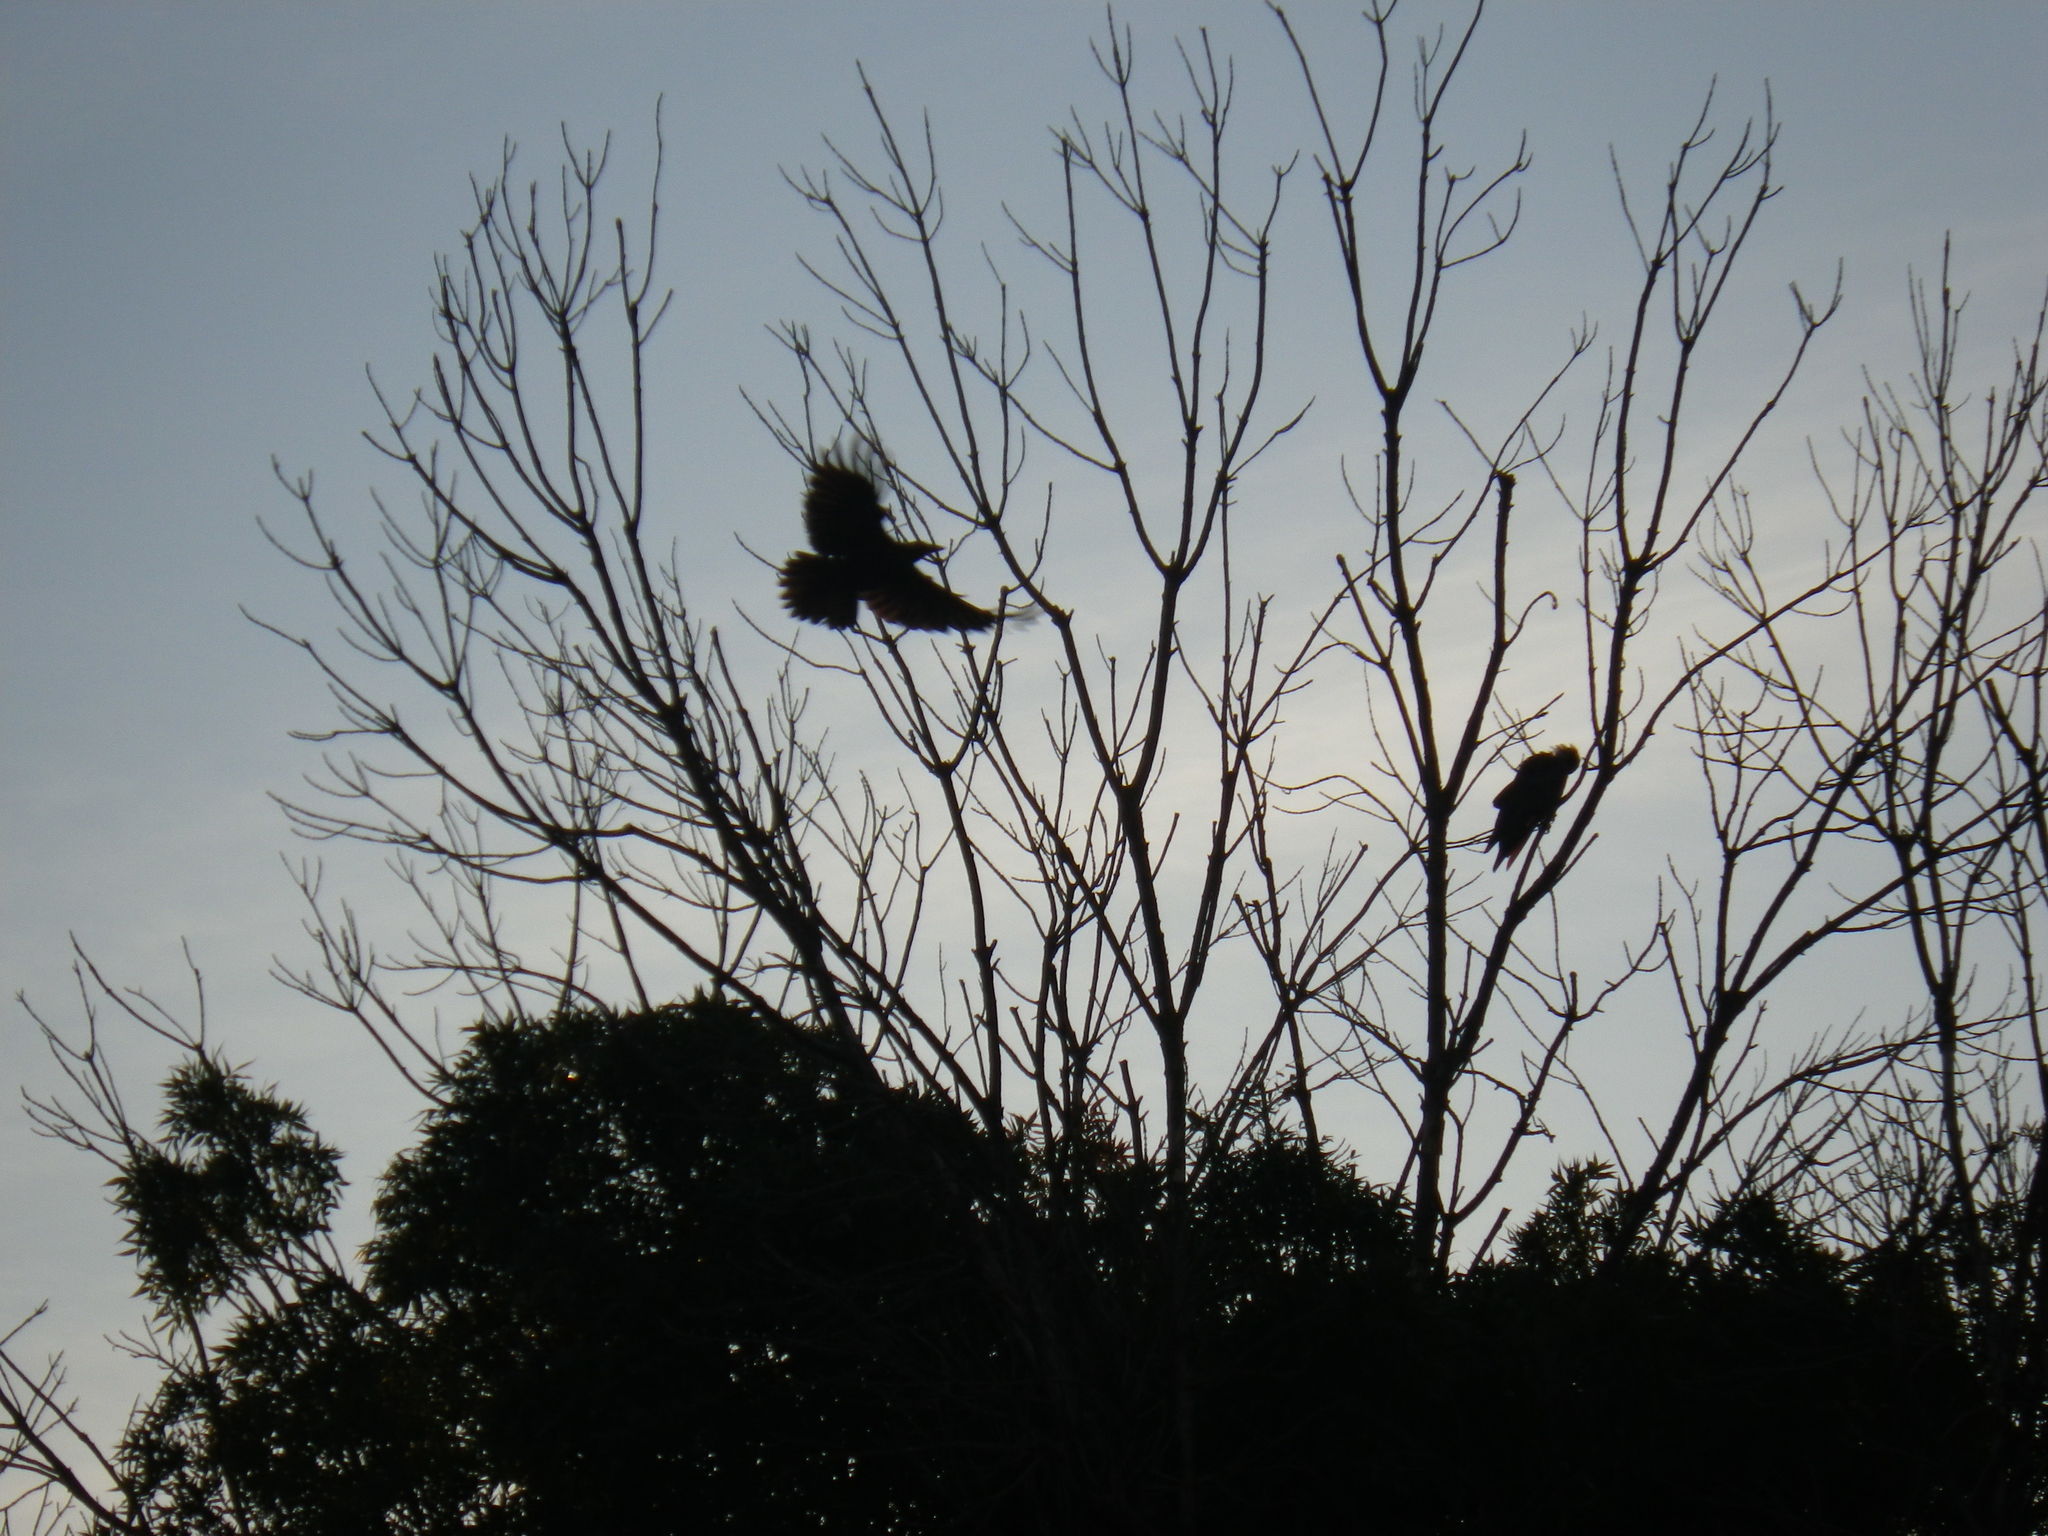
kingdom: Animalia
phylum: Chordata
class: Aves
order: Passeriformes
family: Corvidae
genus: Corvus
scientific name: Corvus corax
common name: Common raven
